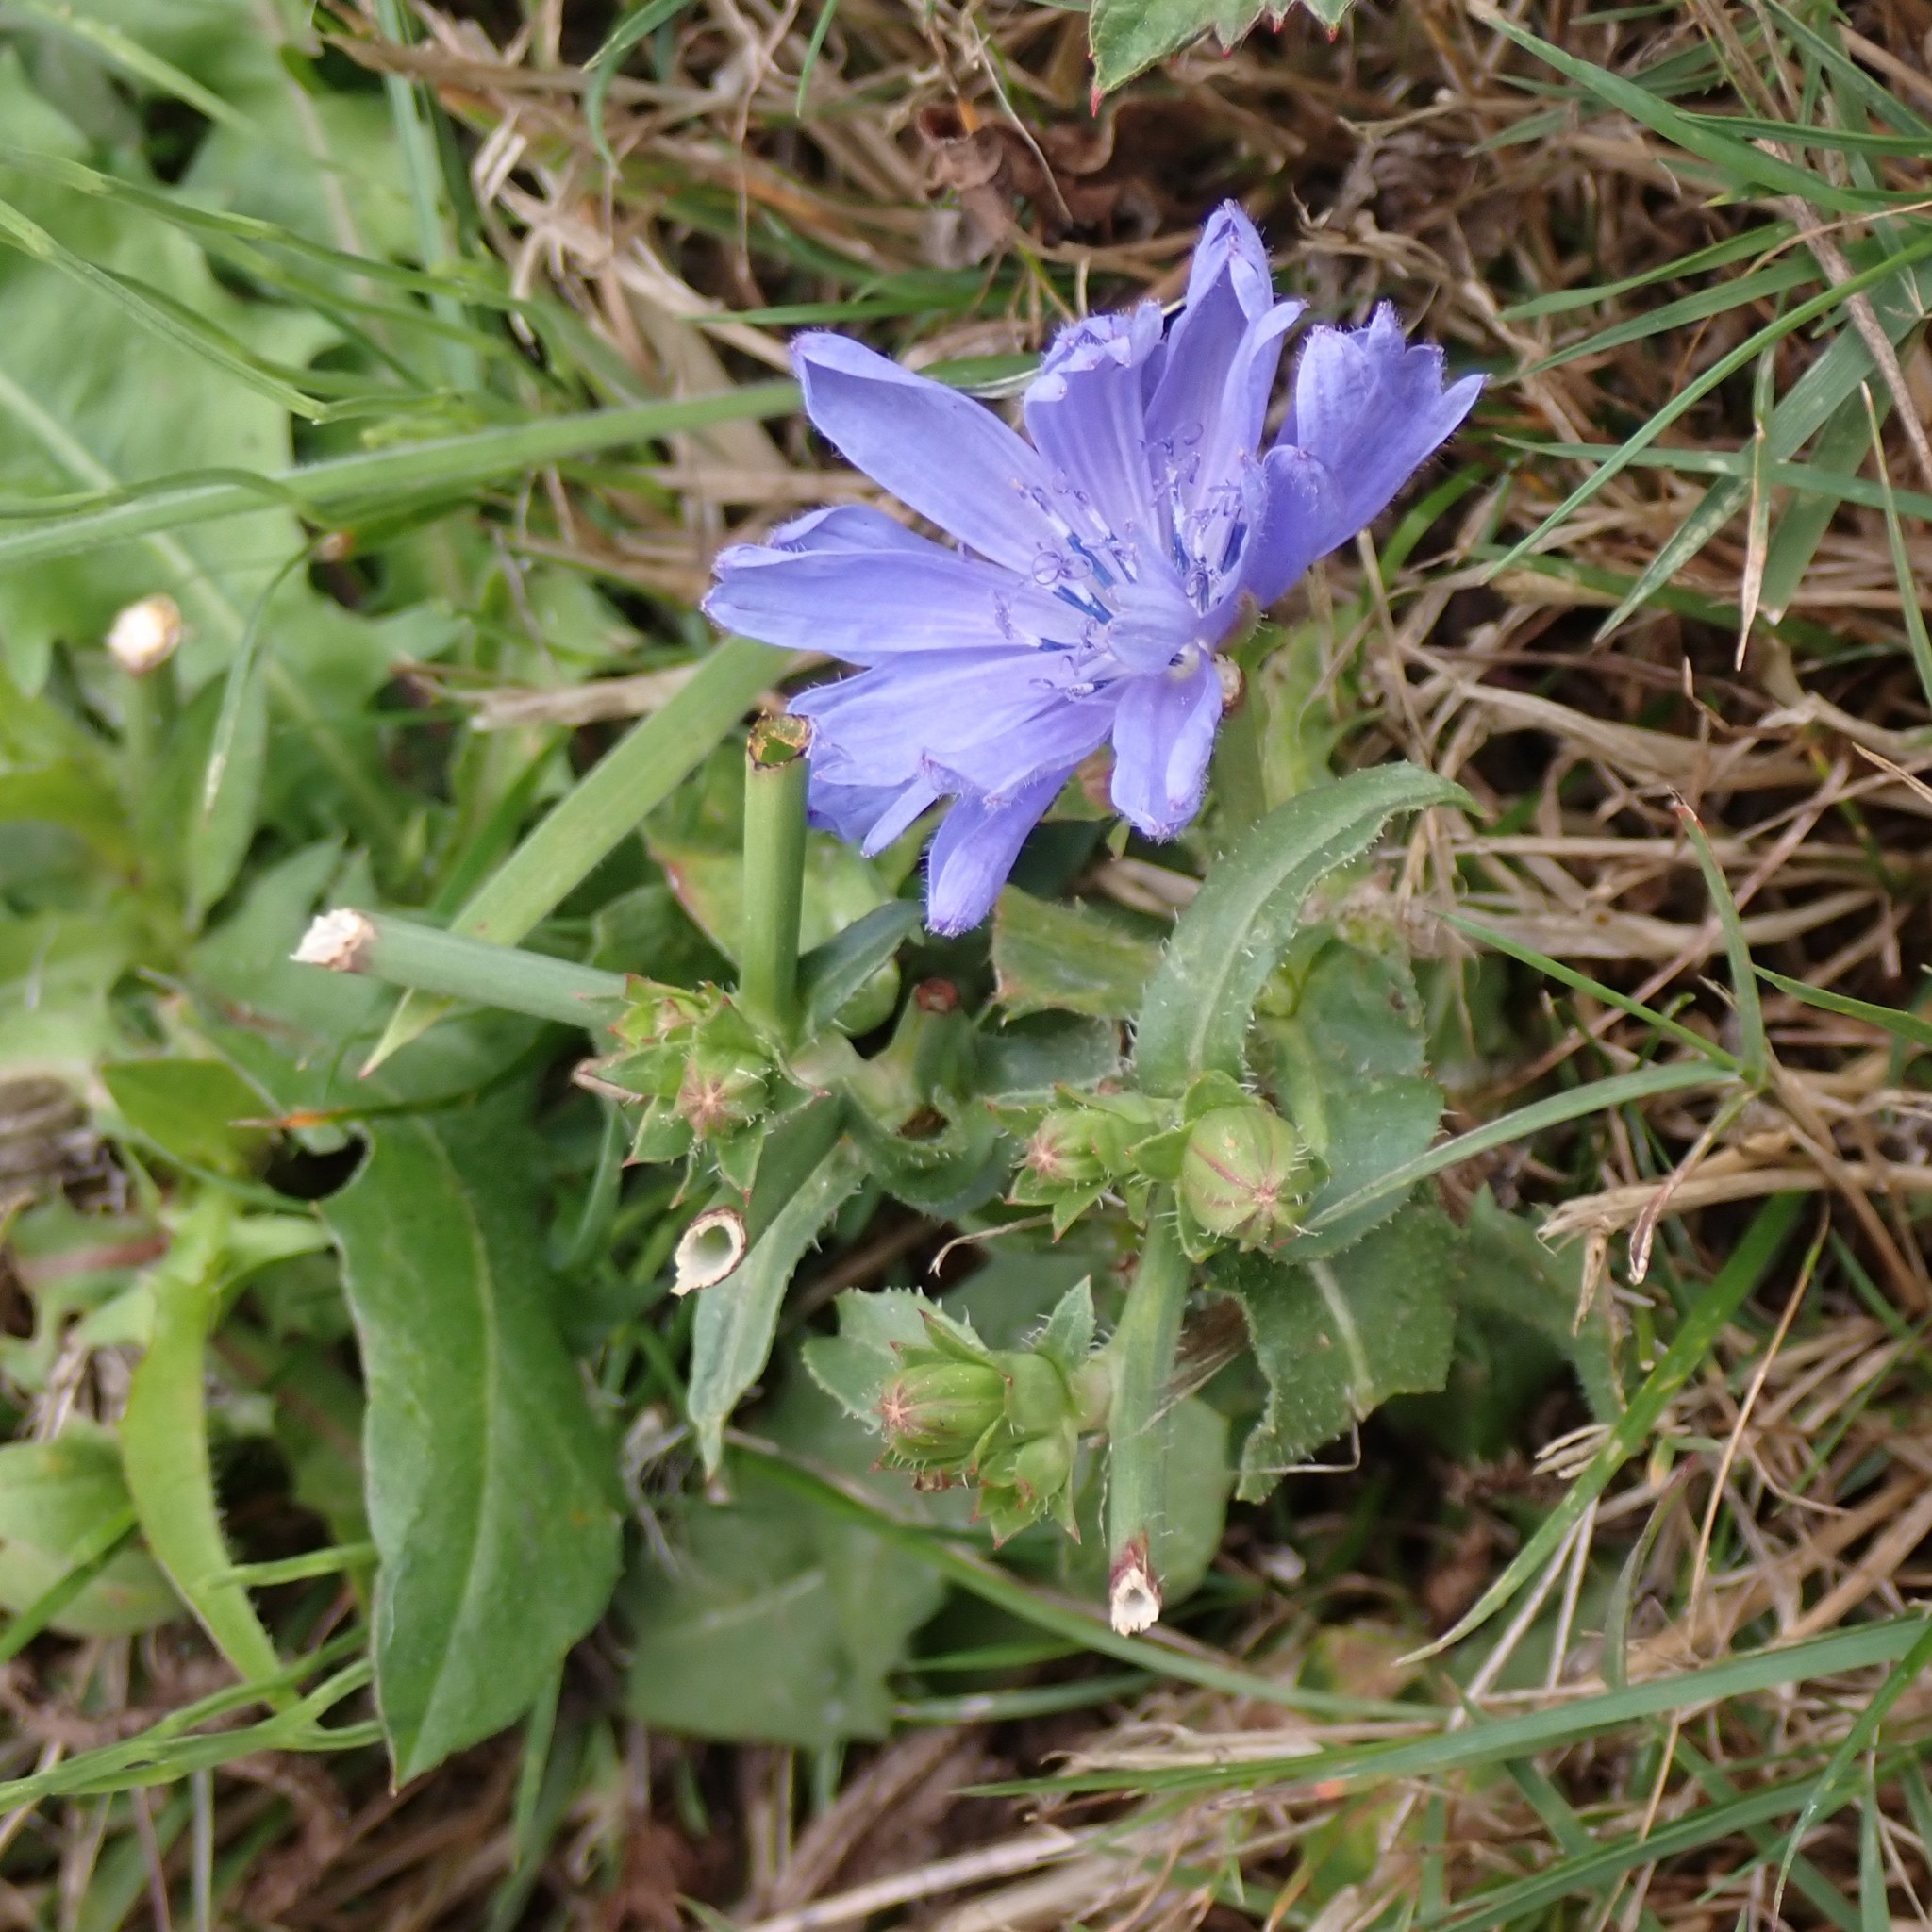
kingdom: Plantae
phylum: Tracheophyta
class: Magnoliopsida
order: Asterales
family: Asteraceae
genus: Cichorium
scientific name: Cichorium intybus
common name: Chicory
